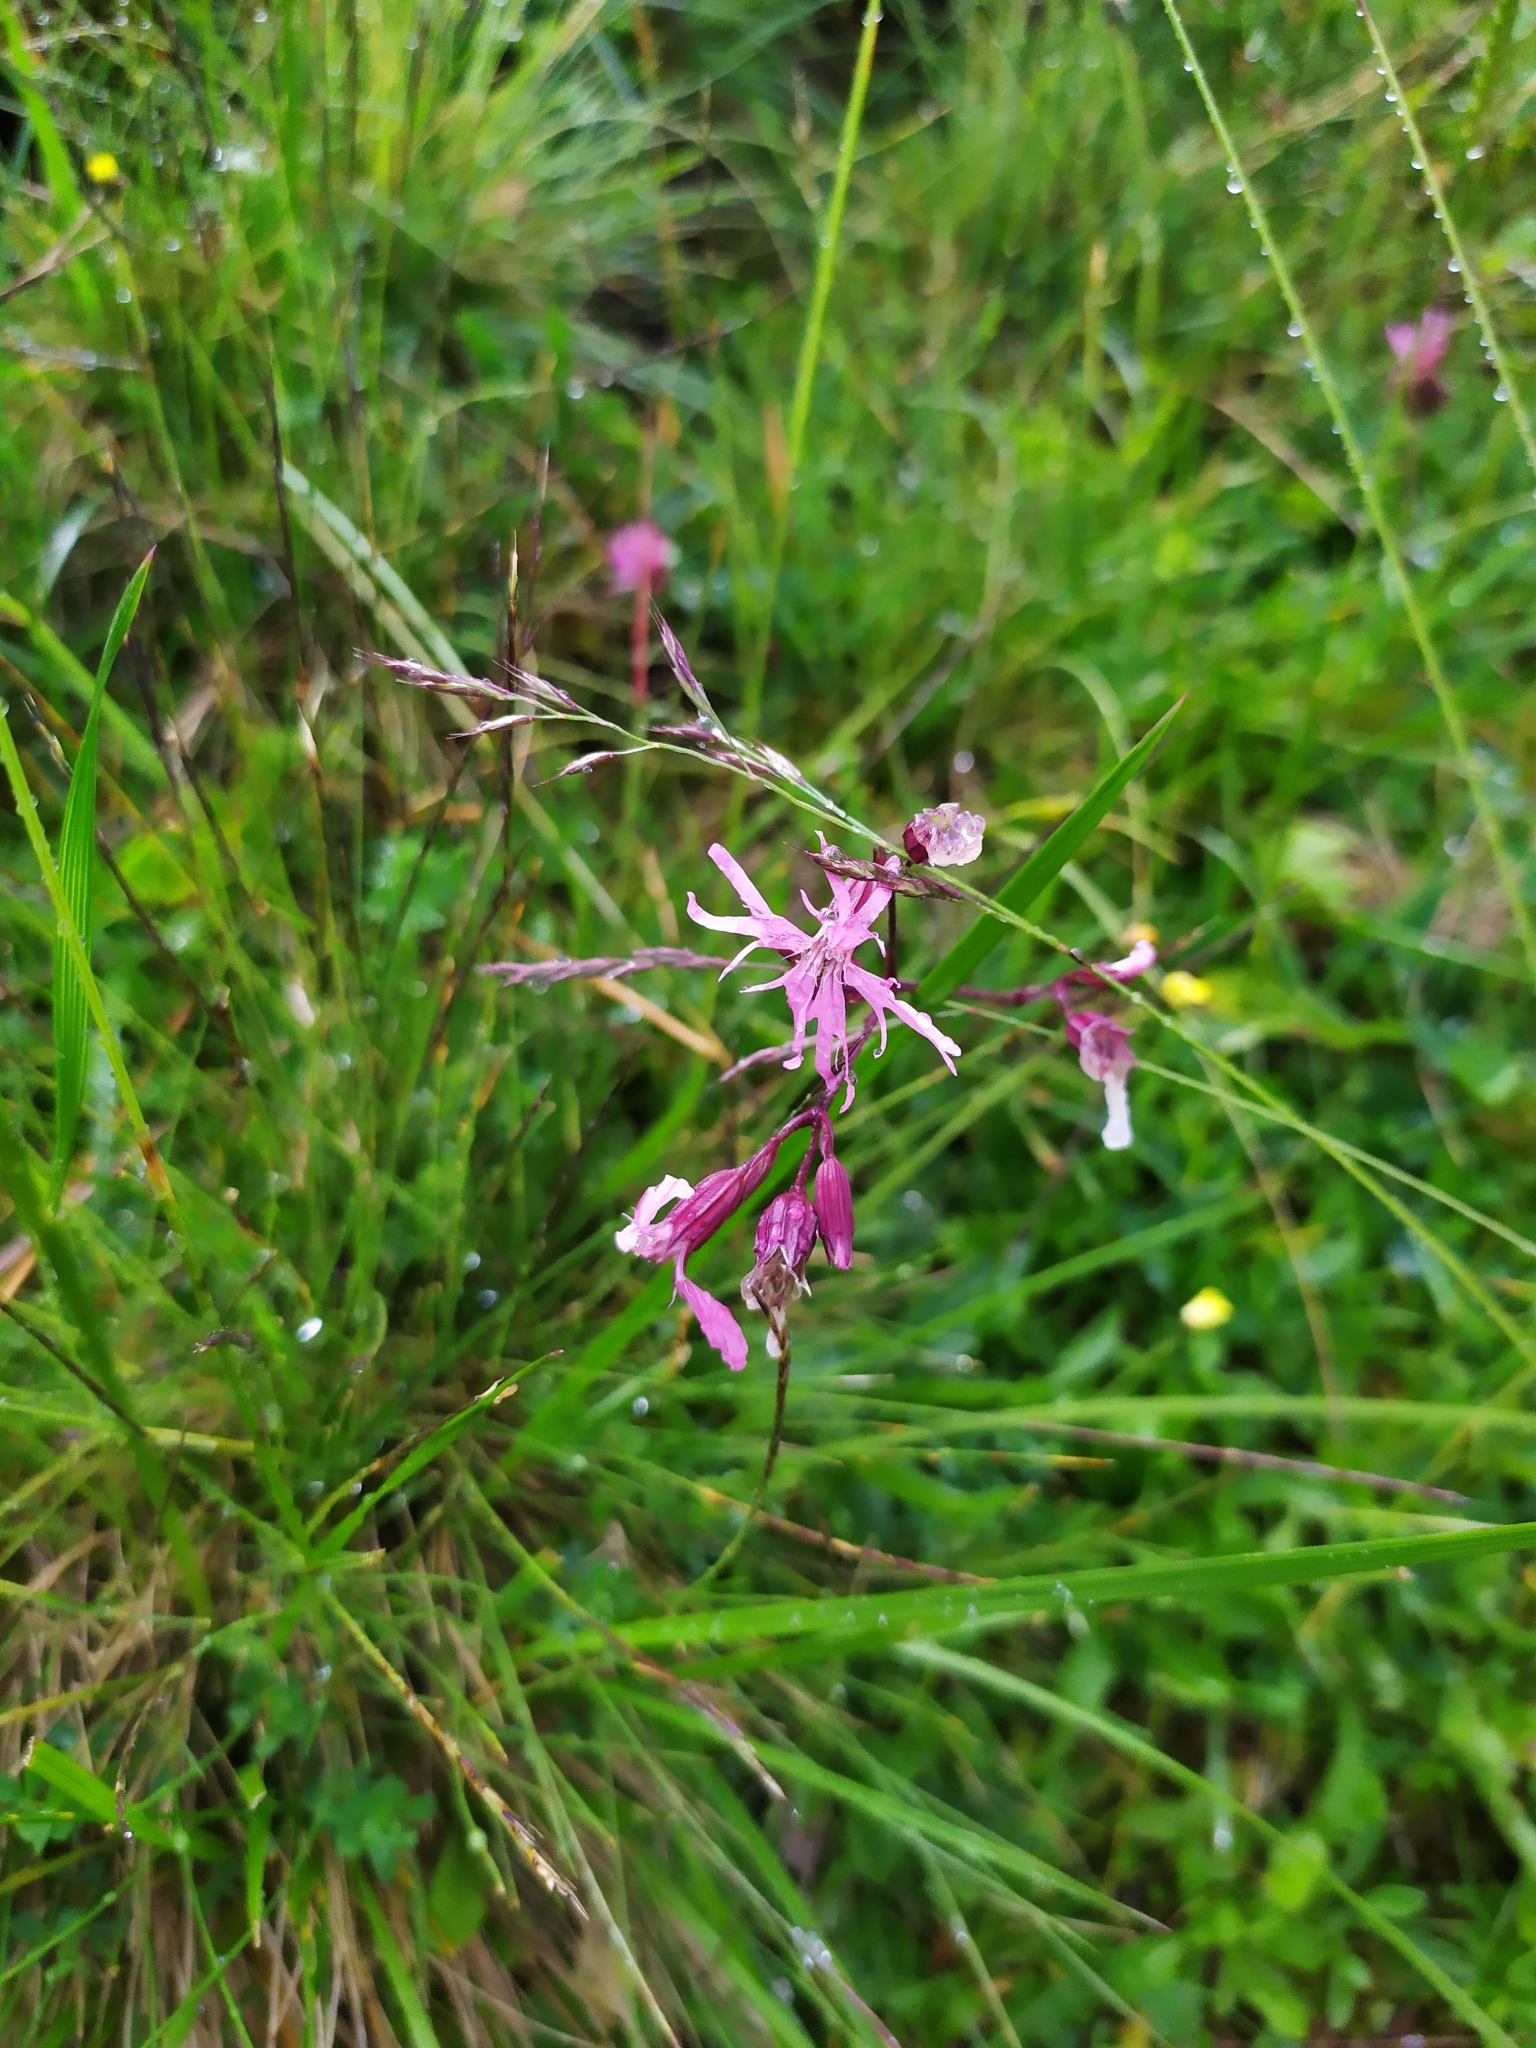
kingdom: Plantae
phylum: Tracheophyta
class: Magnoliopsida
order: Caryophyllales
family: Caryophyllaceae
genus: Silene
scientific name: Silene flos-cuculi
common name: Ragged-robin
